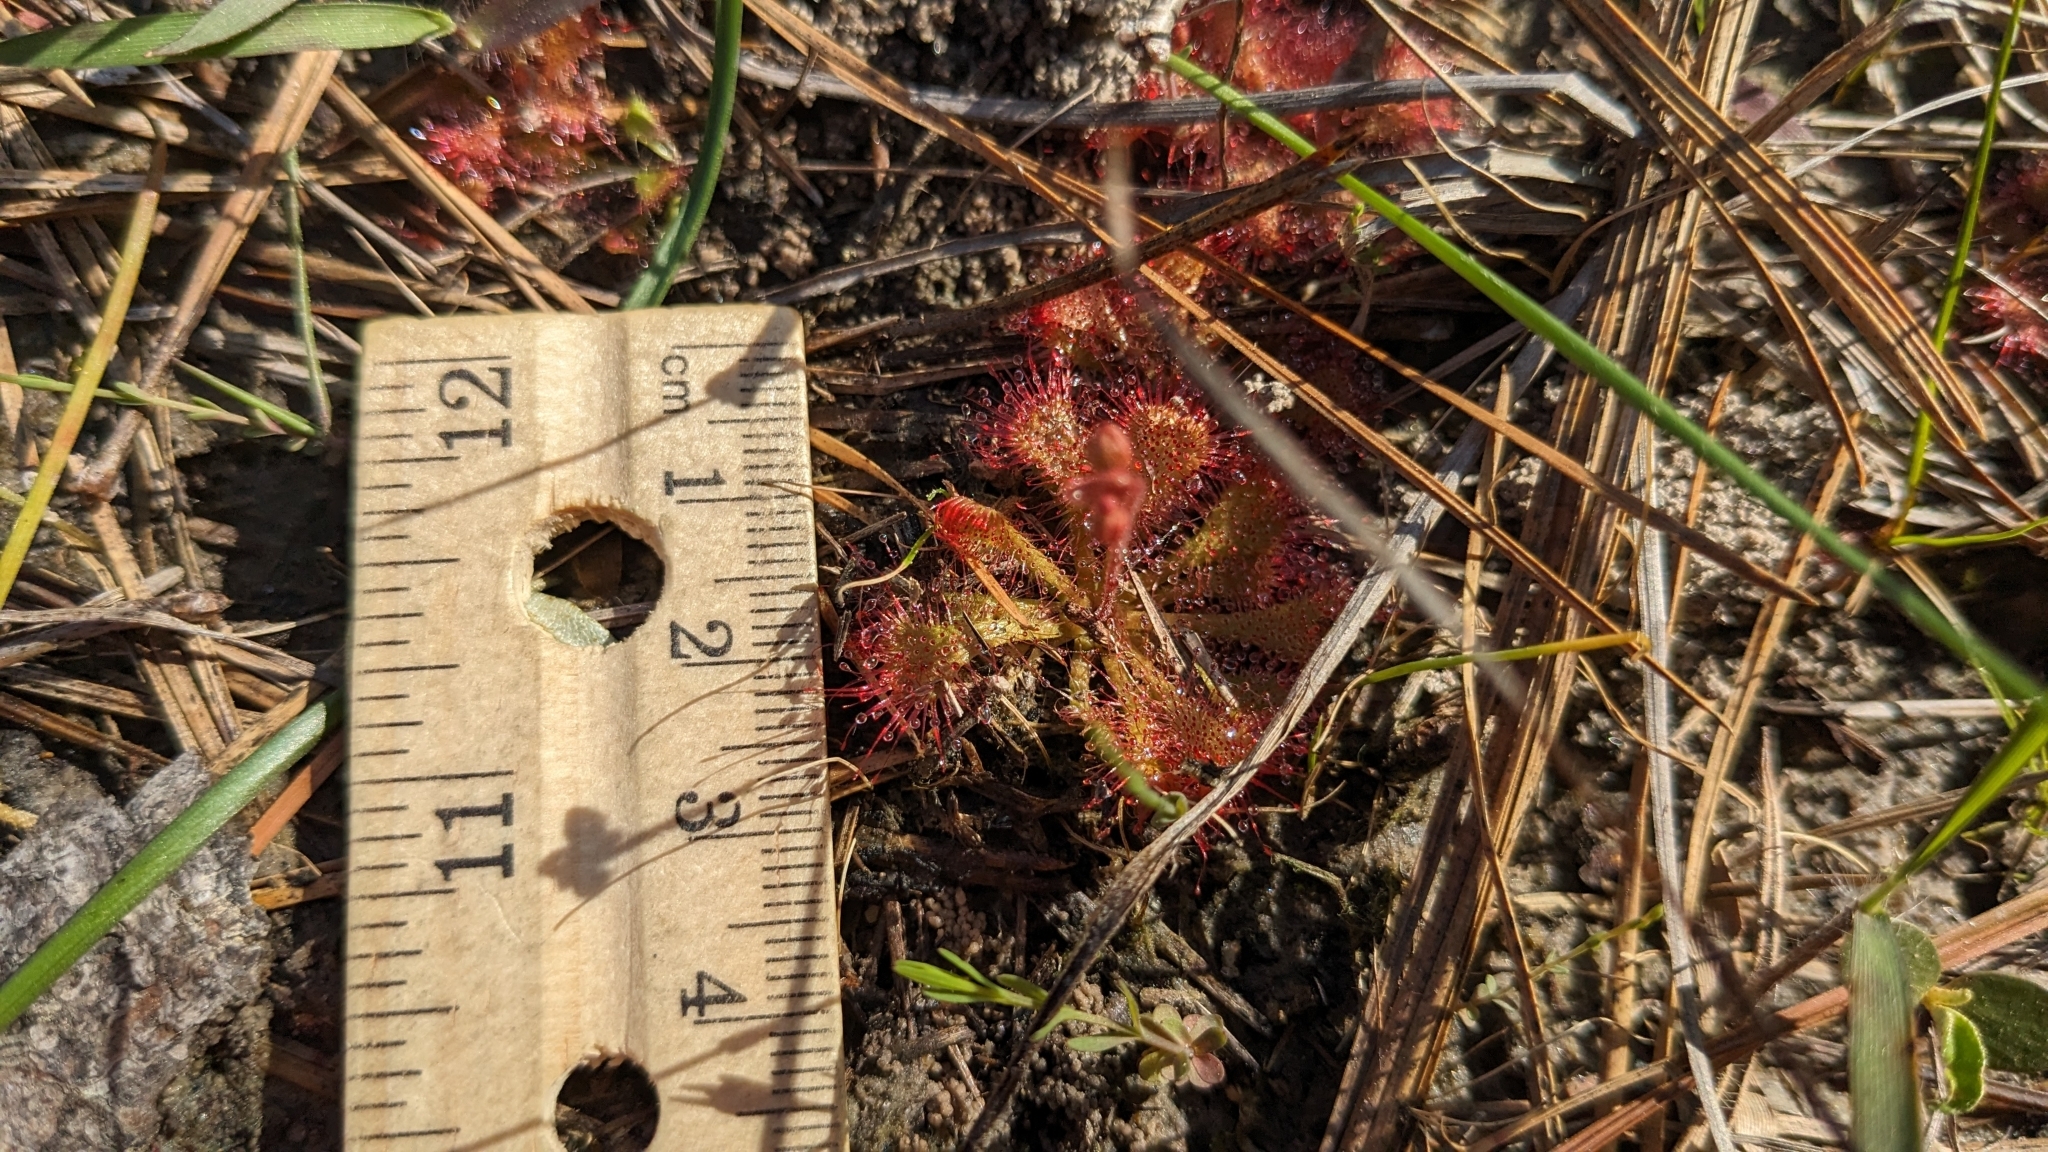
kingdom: Plantae
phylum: Tracheophyta
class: Magnoliopsida
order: Caryophyllales
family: Droseraceae
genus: Drosera
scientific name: Drosera brevifolia
